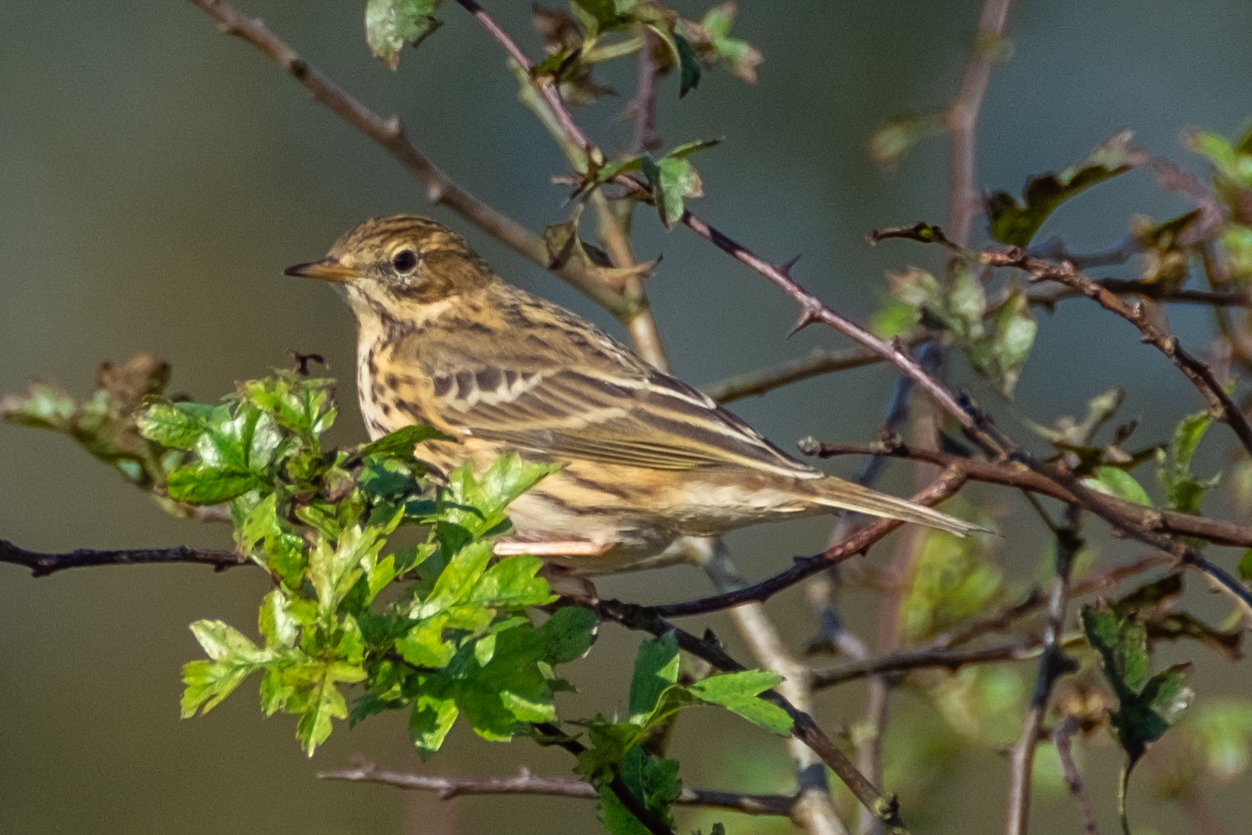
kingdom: Animalia
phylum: Chordata
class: Aves
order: Passeriformes
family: Motacillidae
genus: Anthus
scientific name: Anthus pratensis
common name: Meadow pipit
